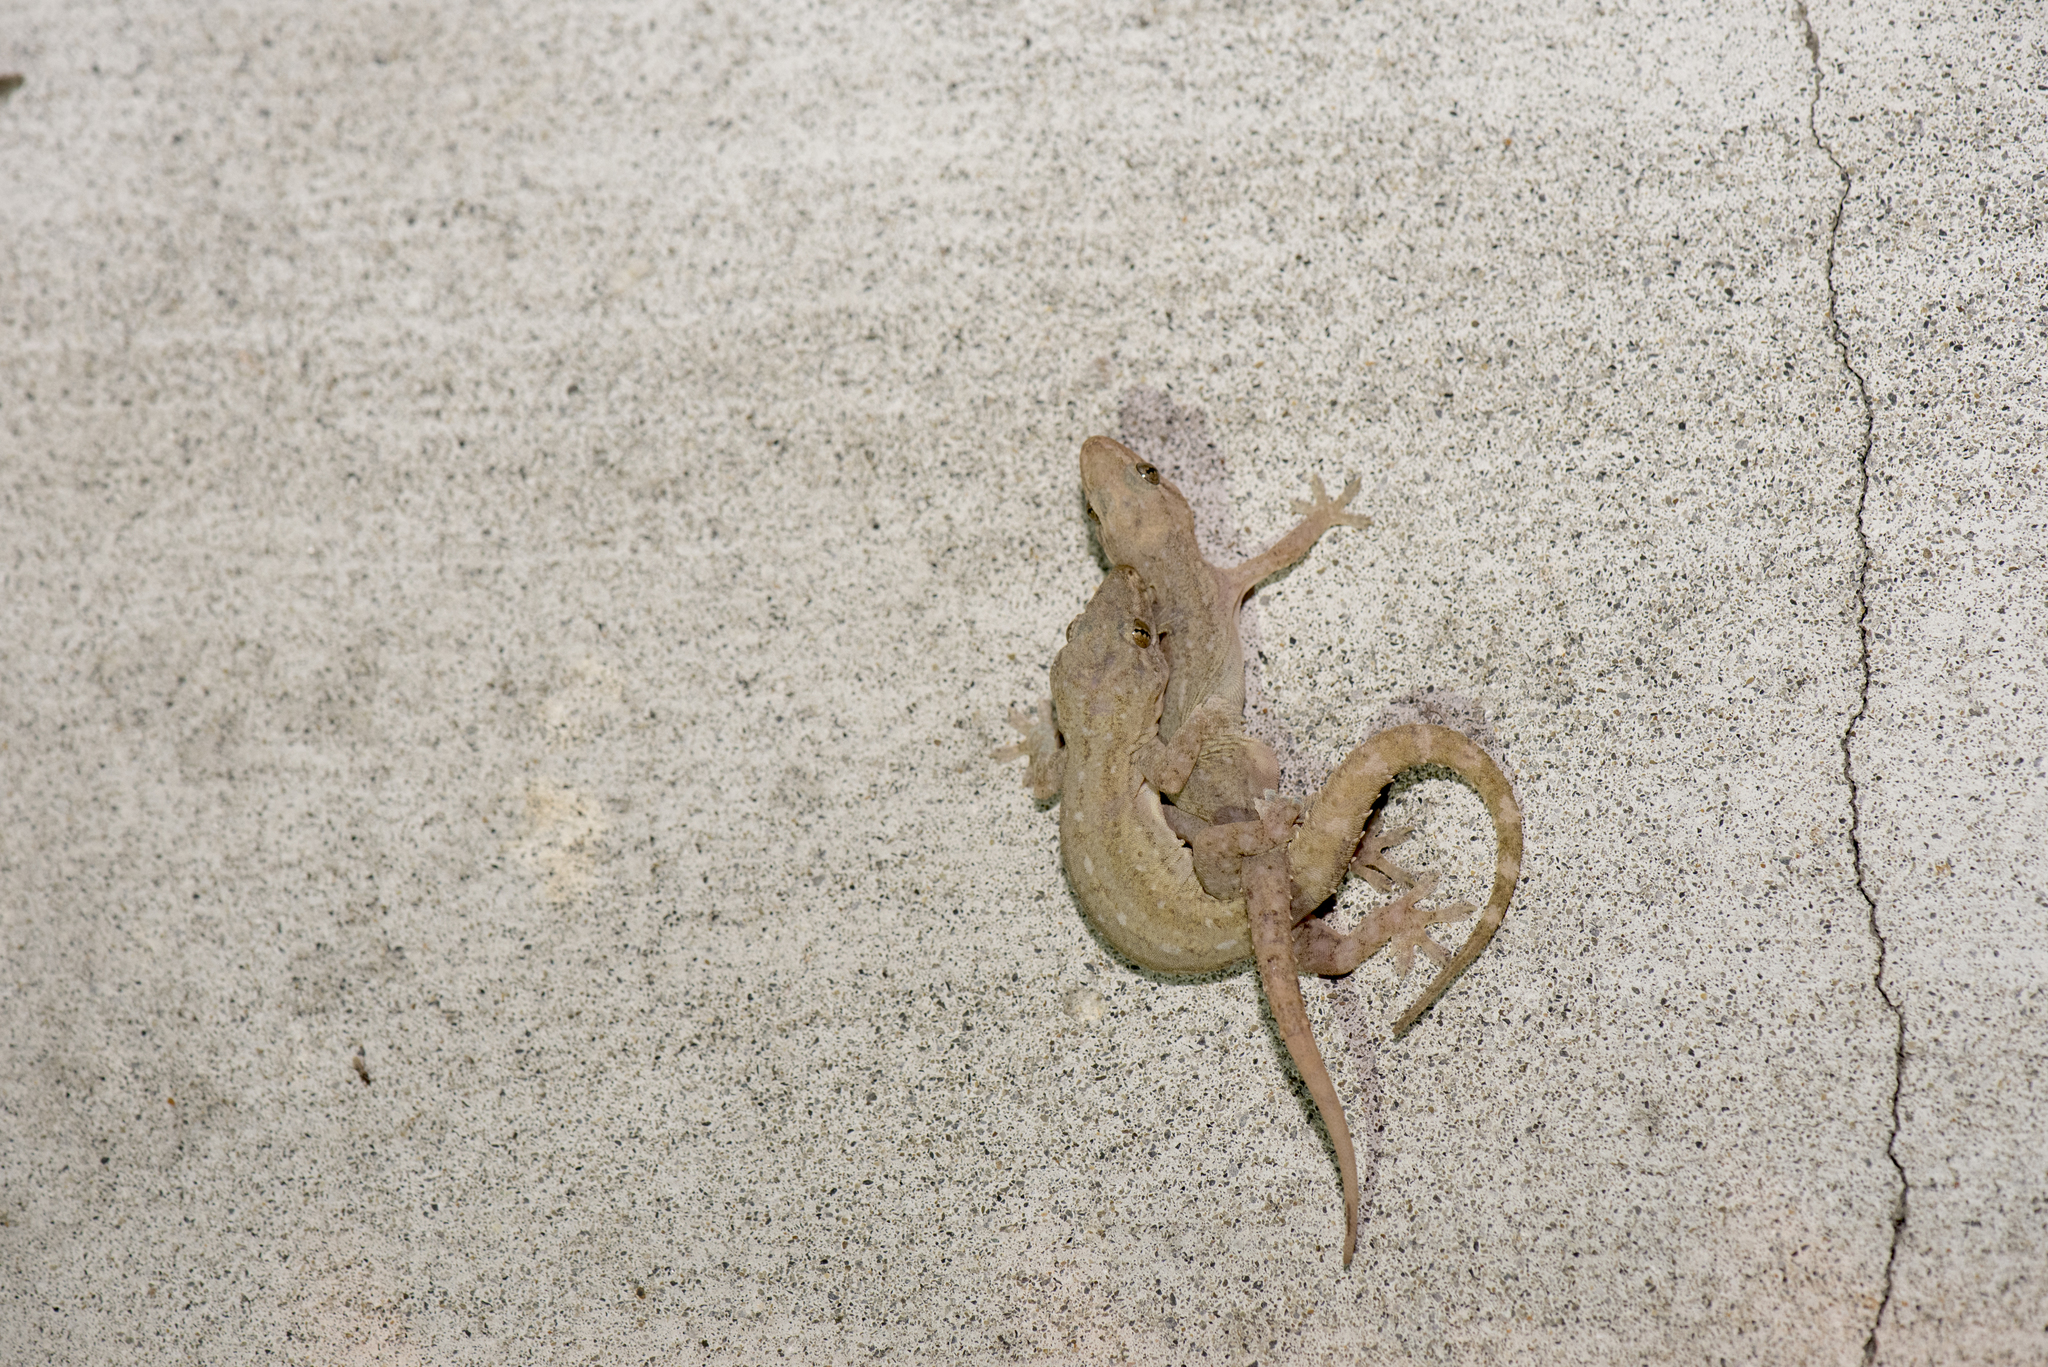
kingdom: Animalia
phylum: Chordata
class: Squamata
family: Gekkonidae
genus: Hemidactylus
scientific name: Hemidactylus frenatus
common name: Common house gecko
